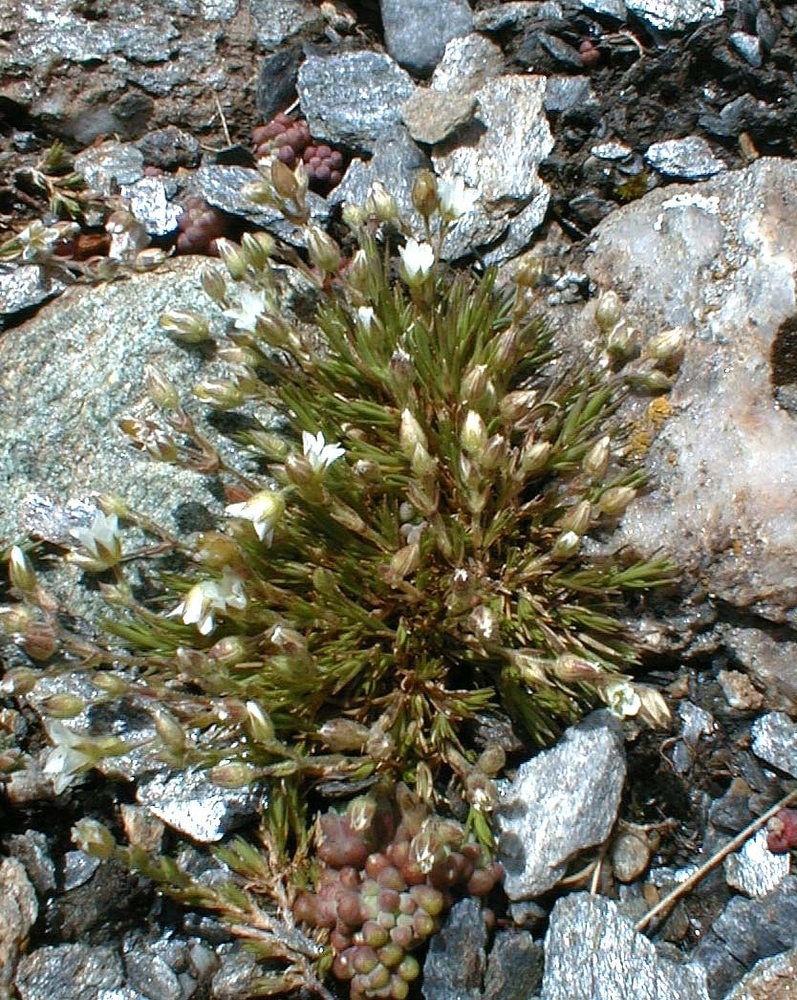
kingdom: Plantae
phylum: Tracheophyta
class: Magnoliopsida
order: Caryophyllales
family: Caryophyllaceae
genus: Sabulina
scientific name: Sabulina verna
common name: Spring sandwort
